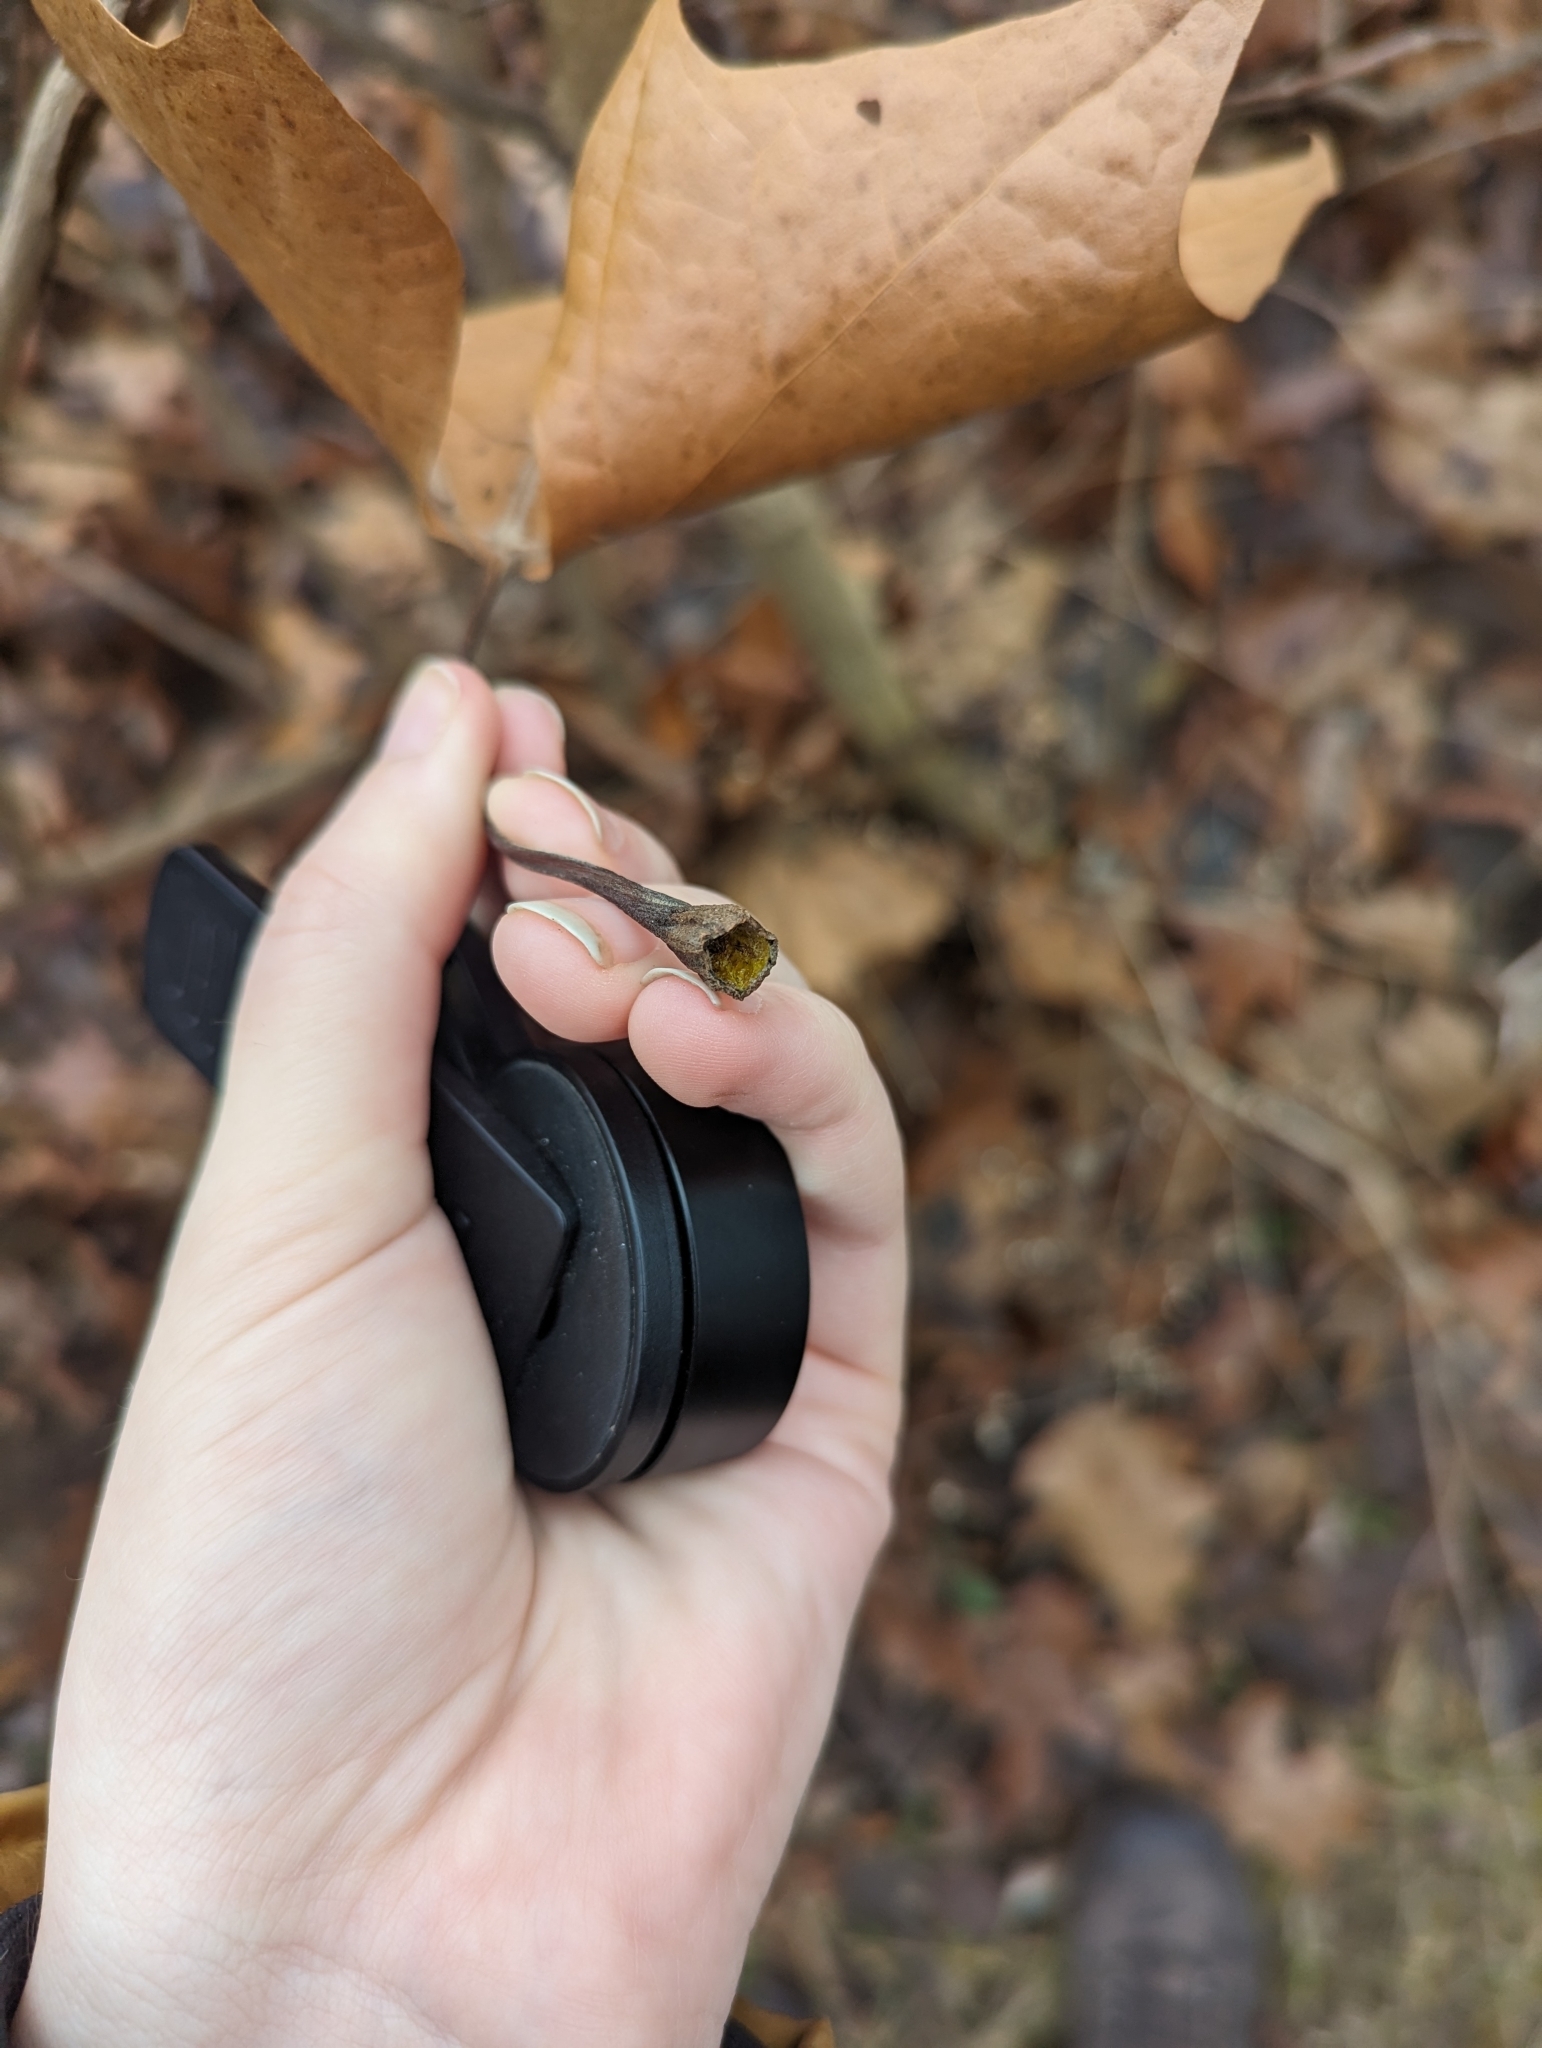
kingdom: Plantae
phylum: Tracheophyta
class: Magnoliopsida
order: Proteales
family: Platanaceae
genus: Platanus
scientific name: Platanus occidentalis
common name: American sycamore
